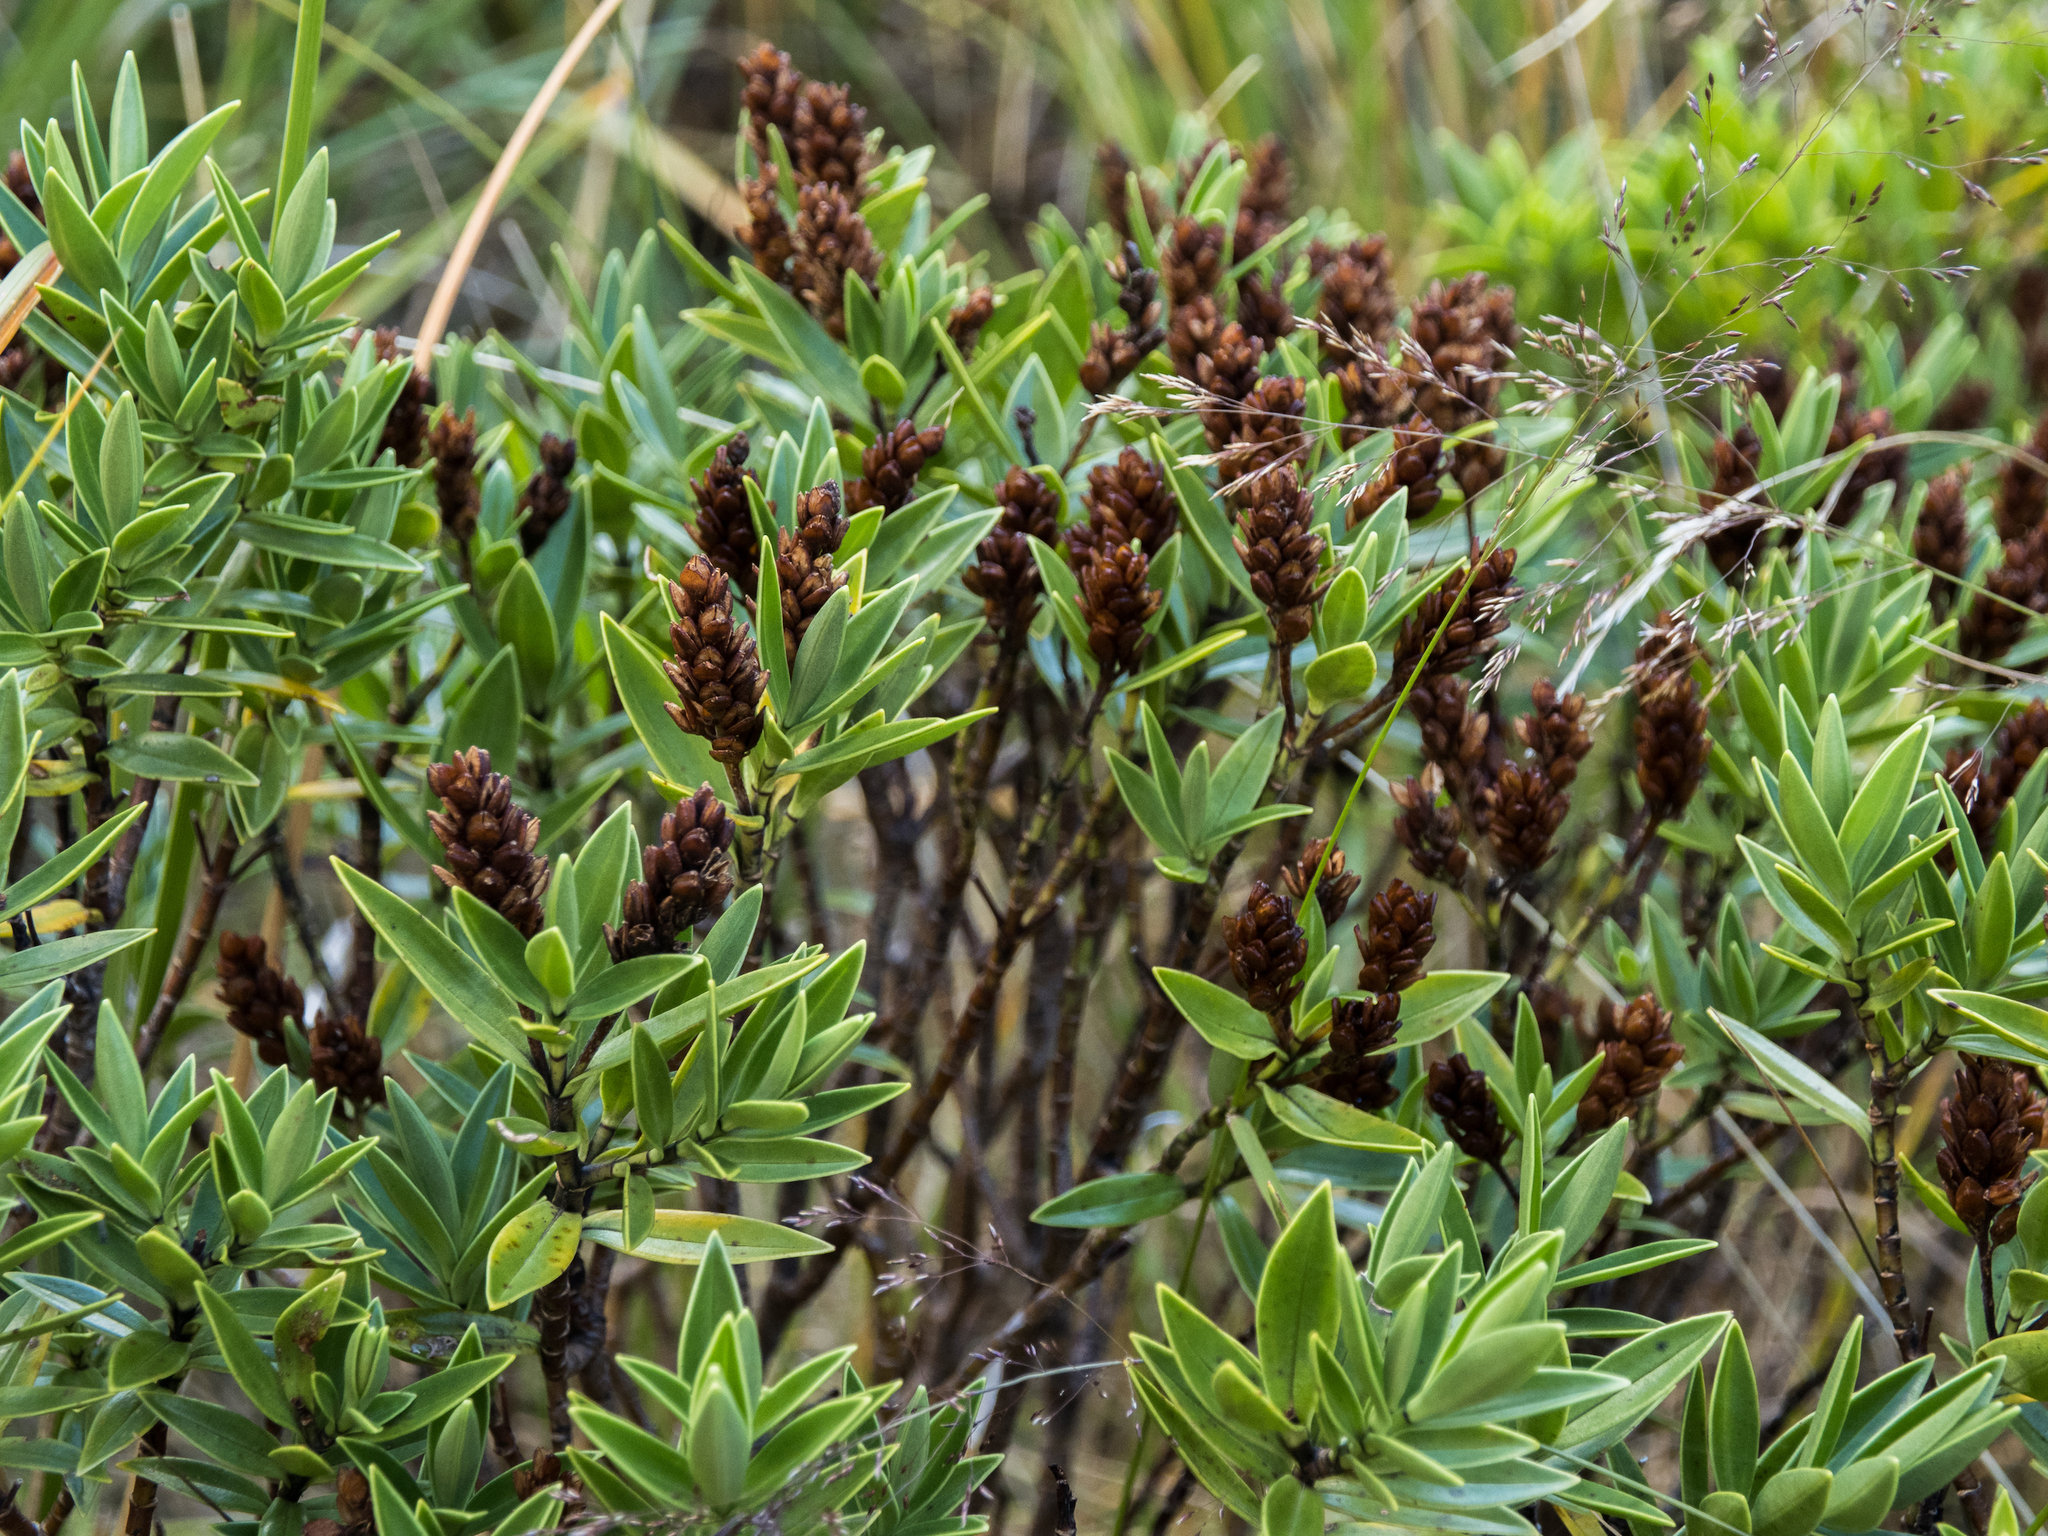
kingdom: Plantae
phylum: Tracheophyta
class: Magnoliopsida
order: Lamiales
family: Plantaginaceae
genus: Veronica
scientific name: Veronica subalpina
